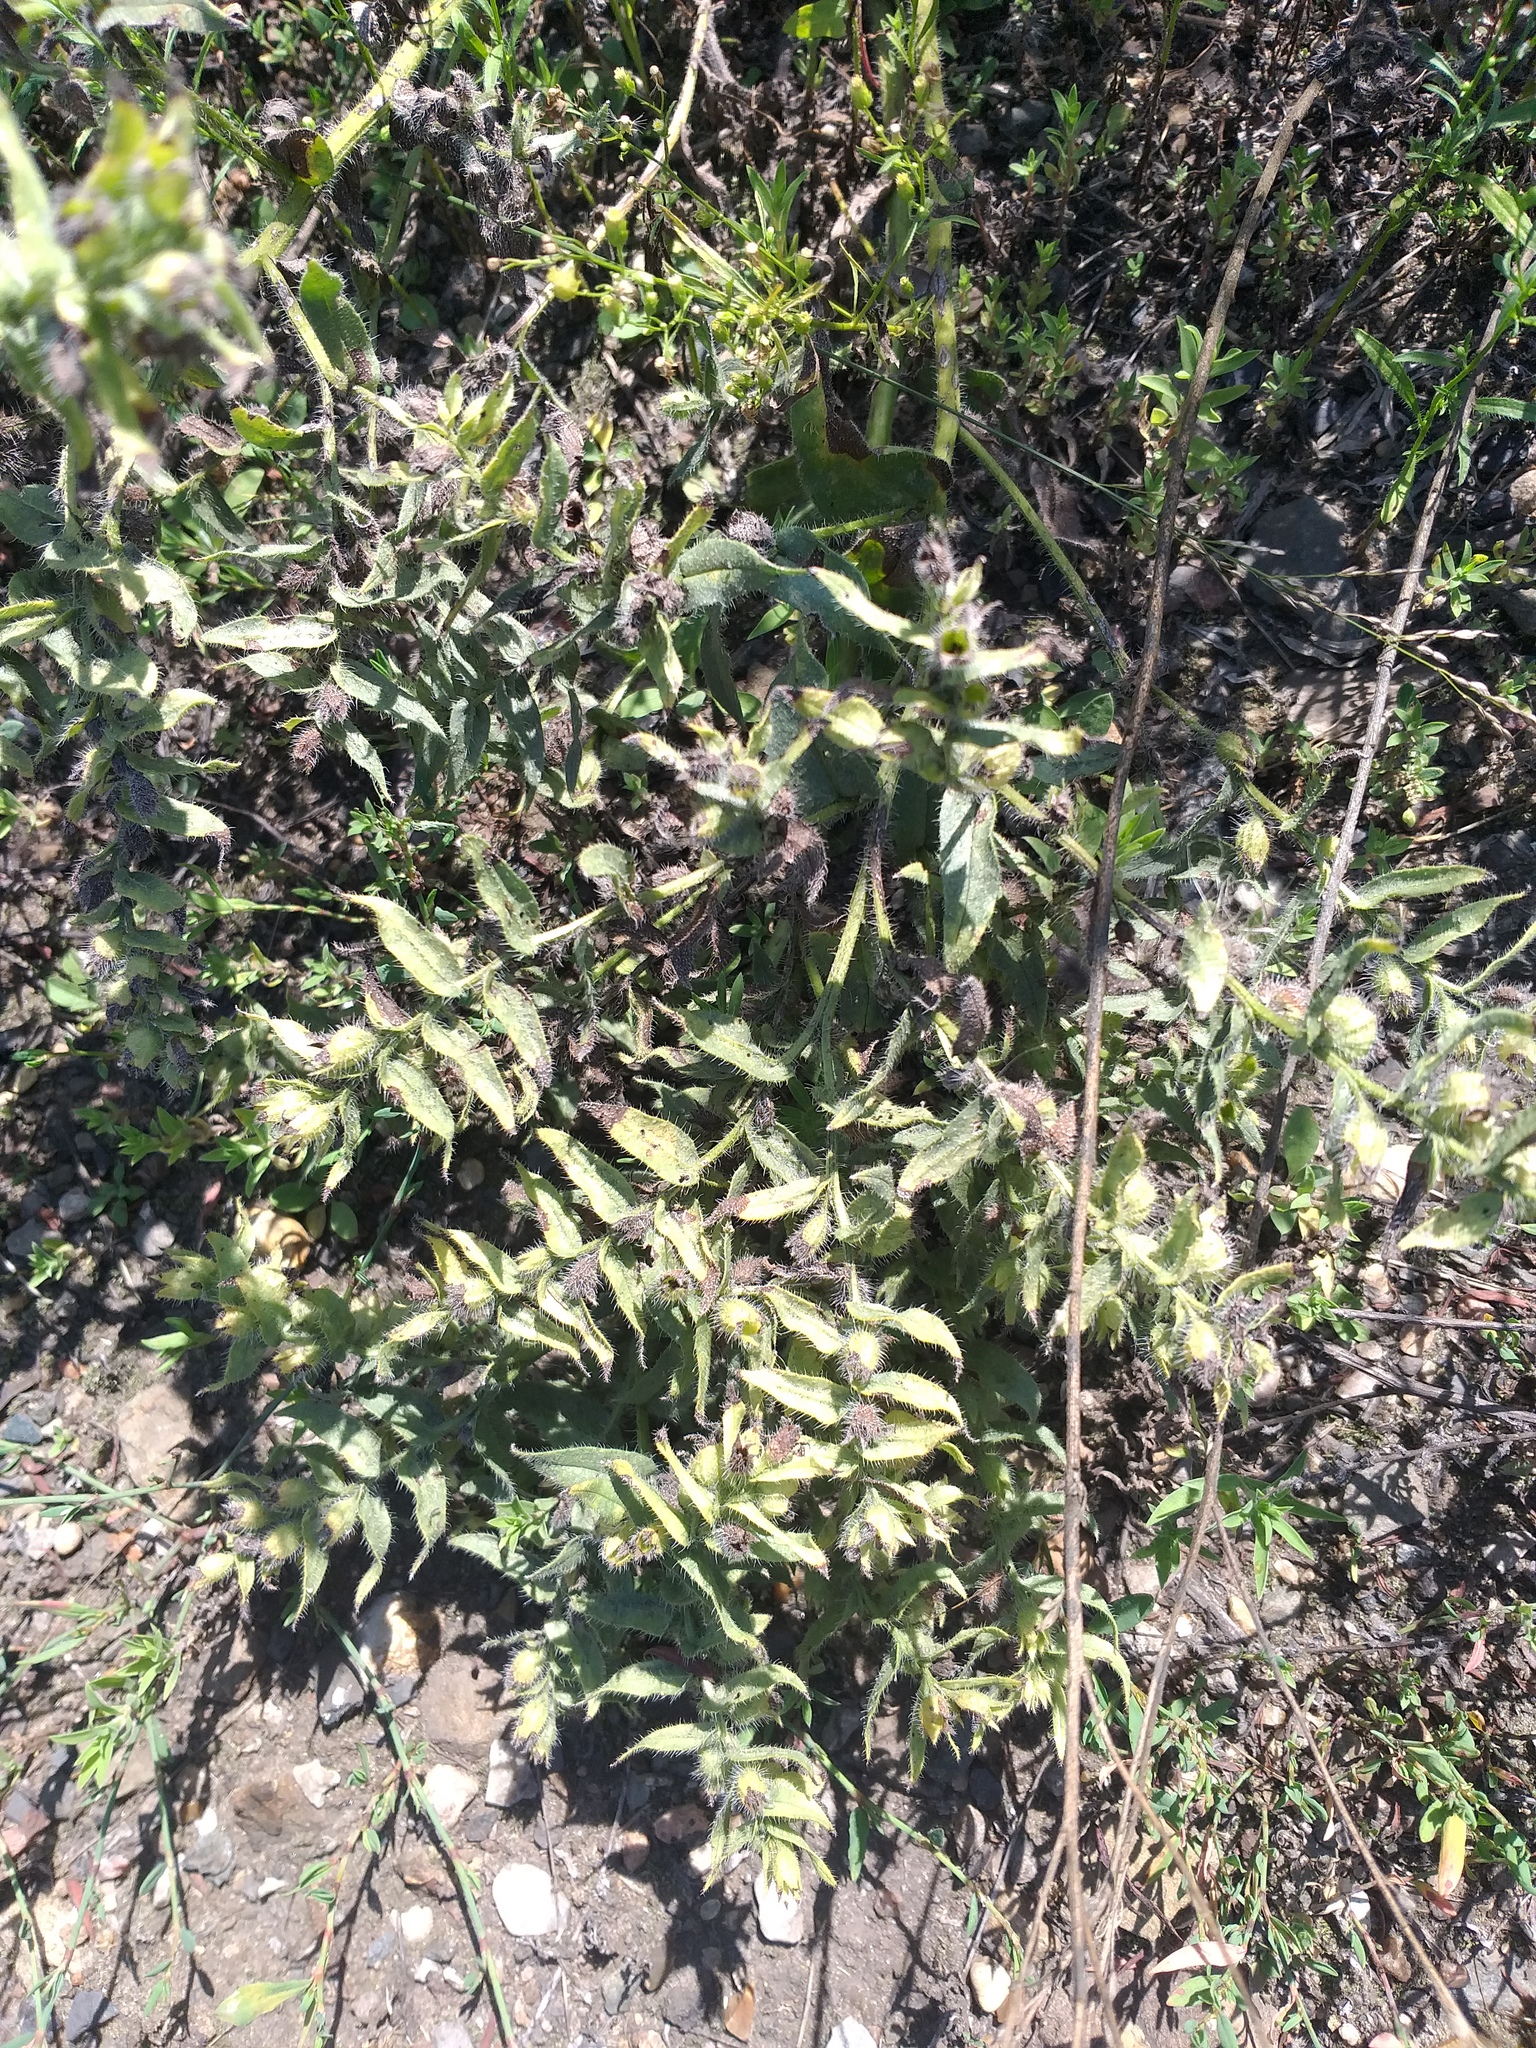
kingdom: Plantae
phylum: Tracheophyta
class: Magnoliopsida
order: Boraginales
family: Boraginaceae
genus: Nonea
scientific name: Nonea pulla
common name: Brown nonea
